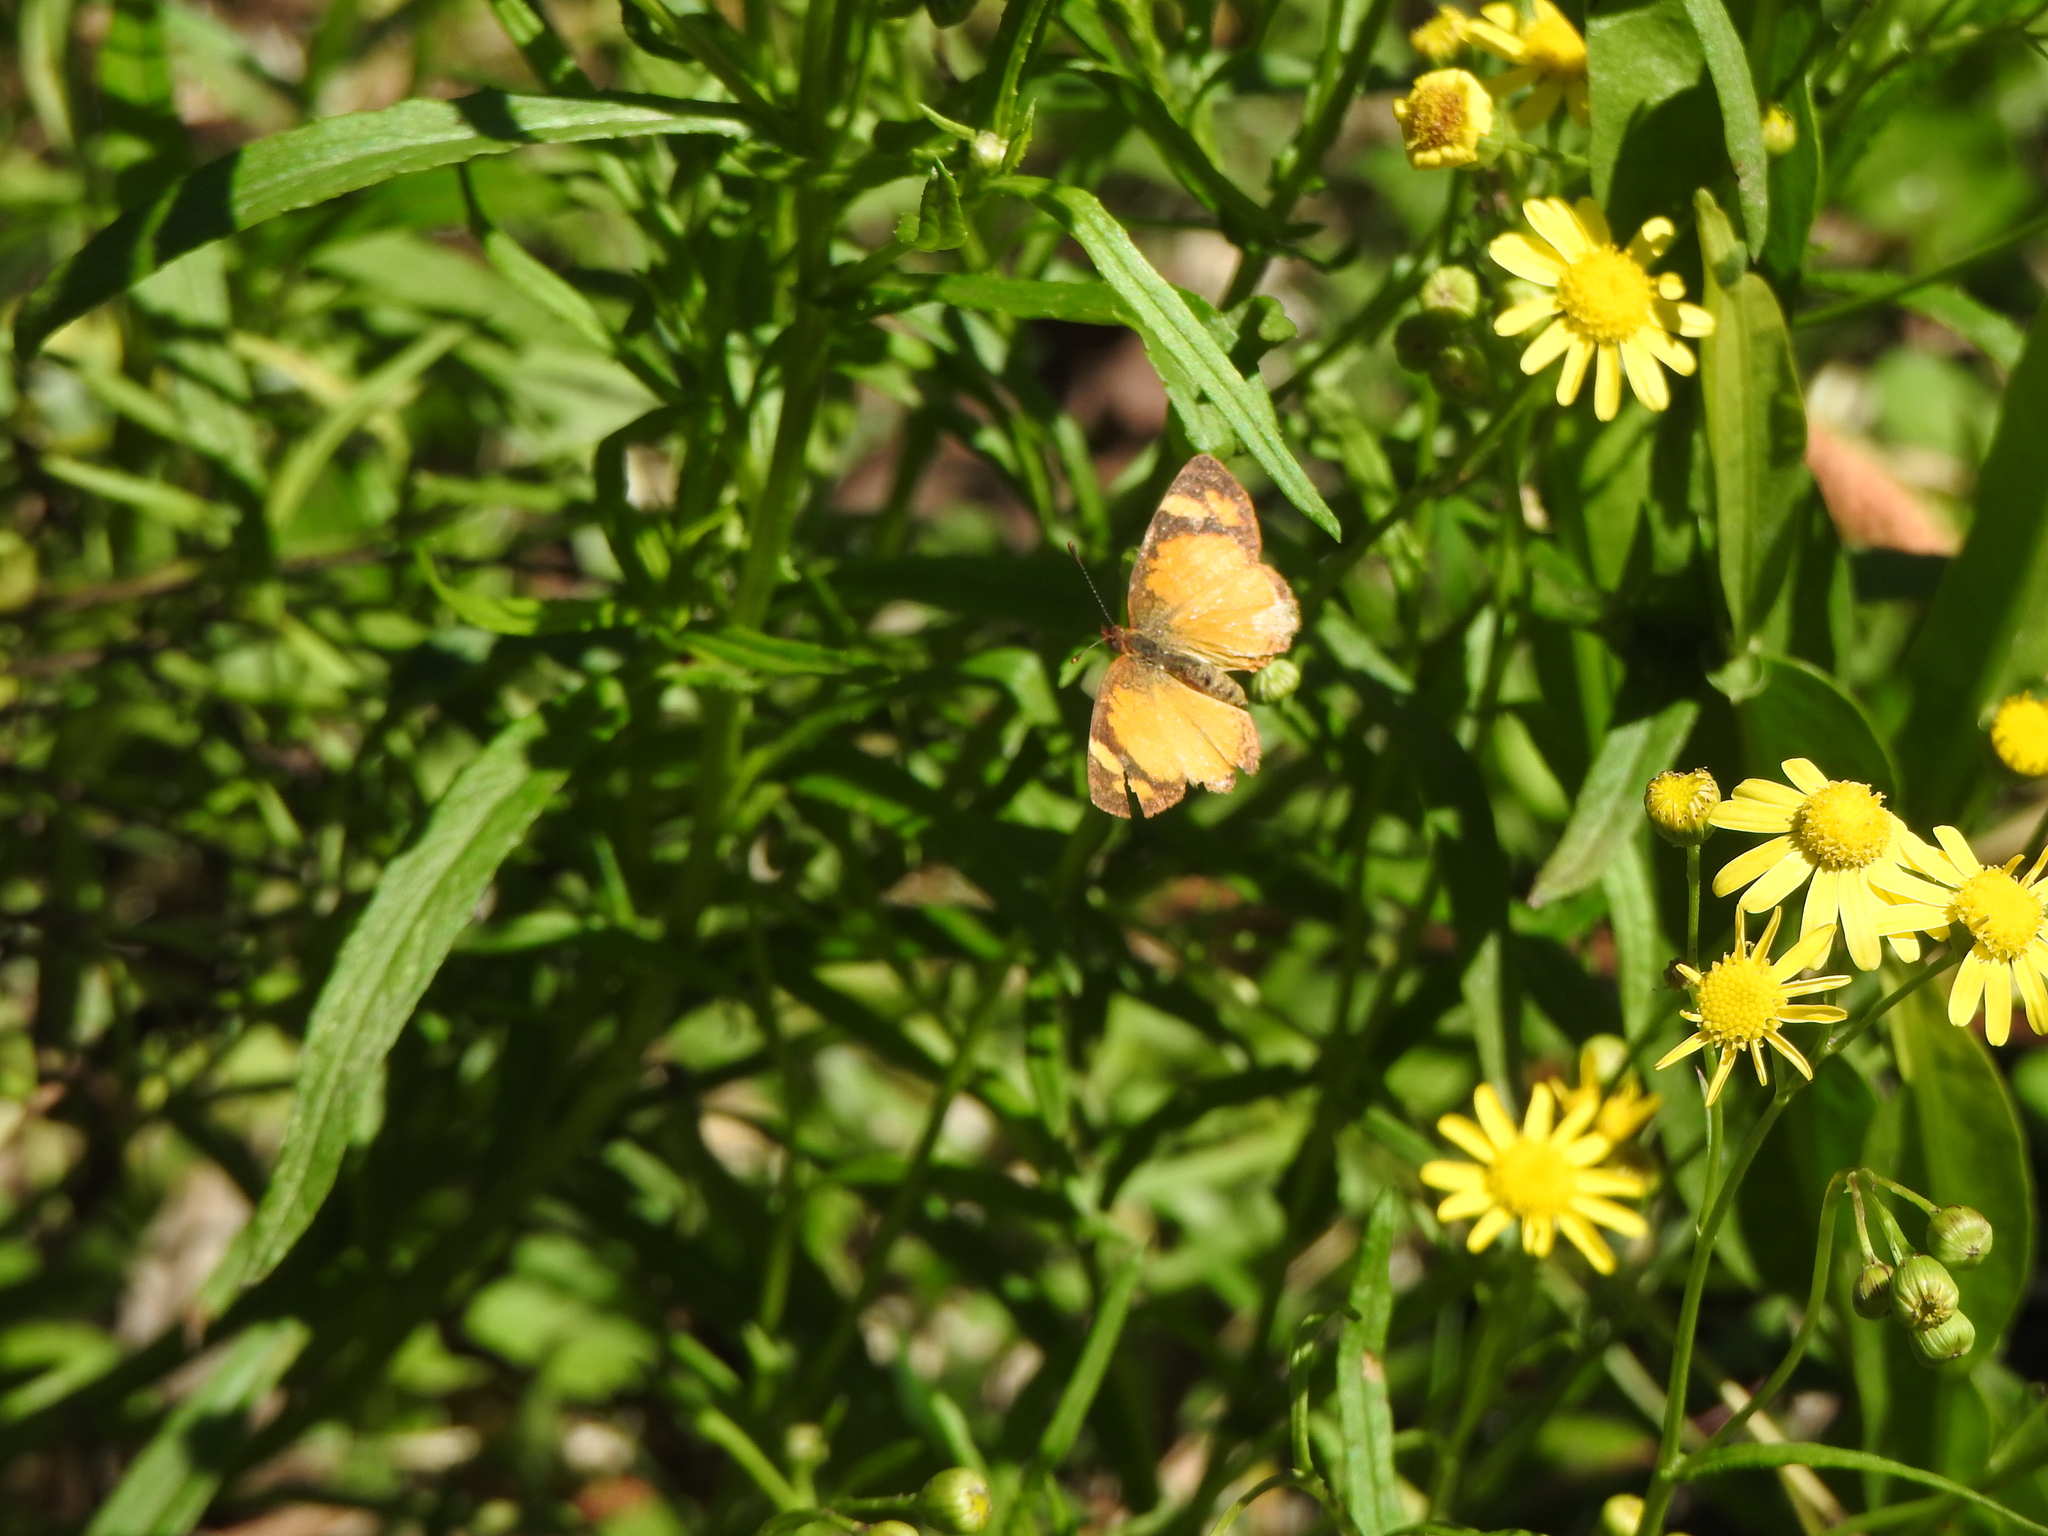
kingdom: Animalia
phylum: Arthropoda
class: Insecta
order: Lepidoptera
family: Nymphalidae
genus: Tegosa
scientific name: Tegosa claudina
